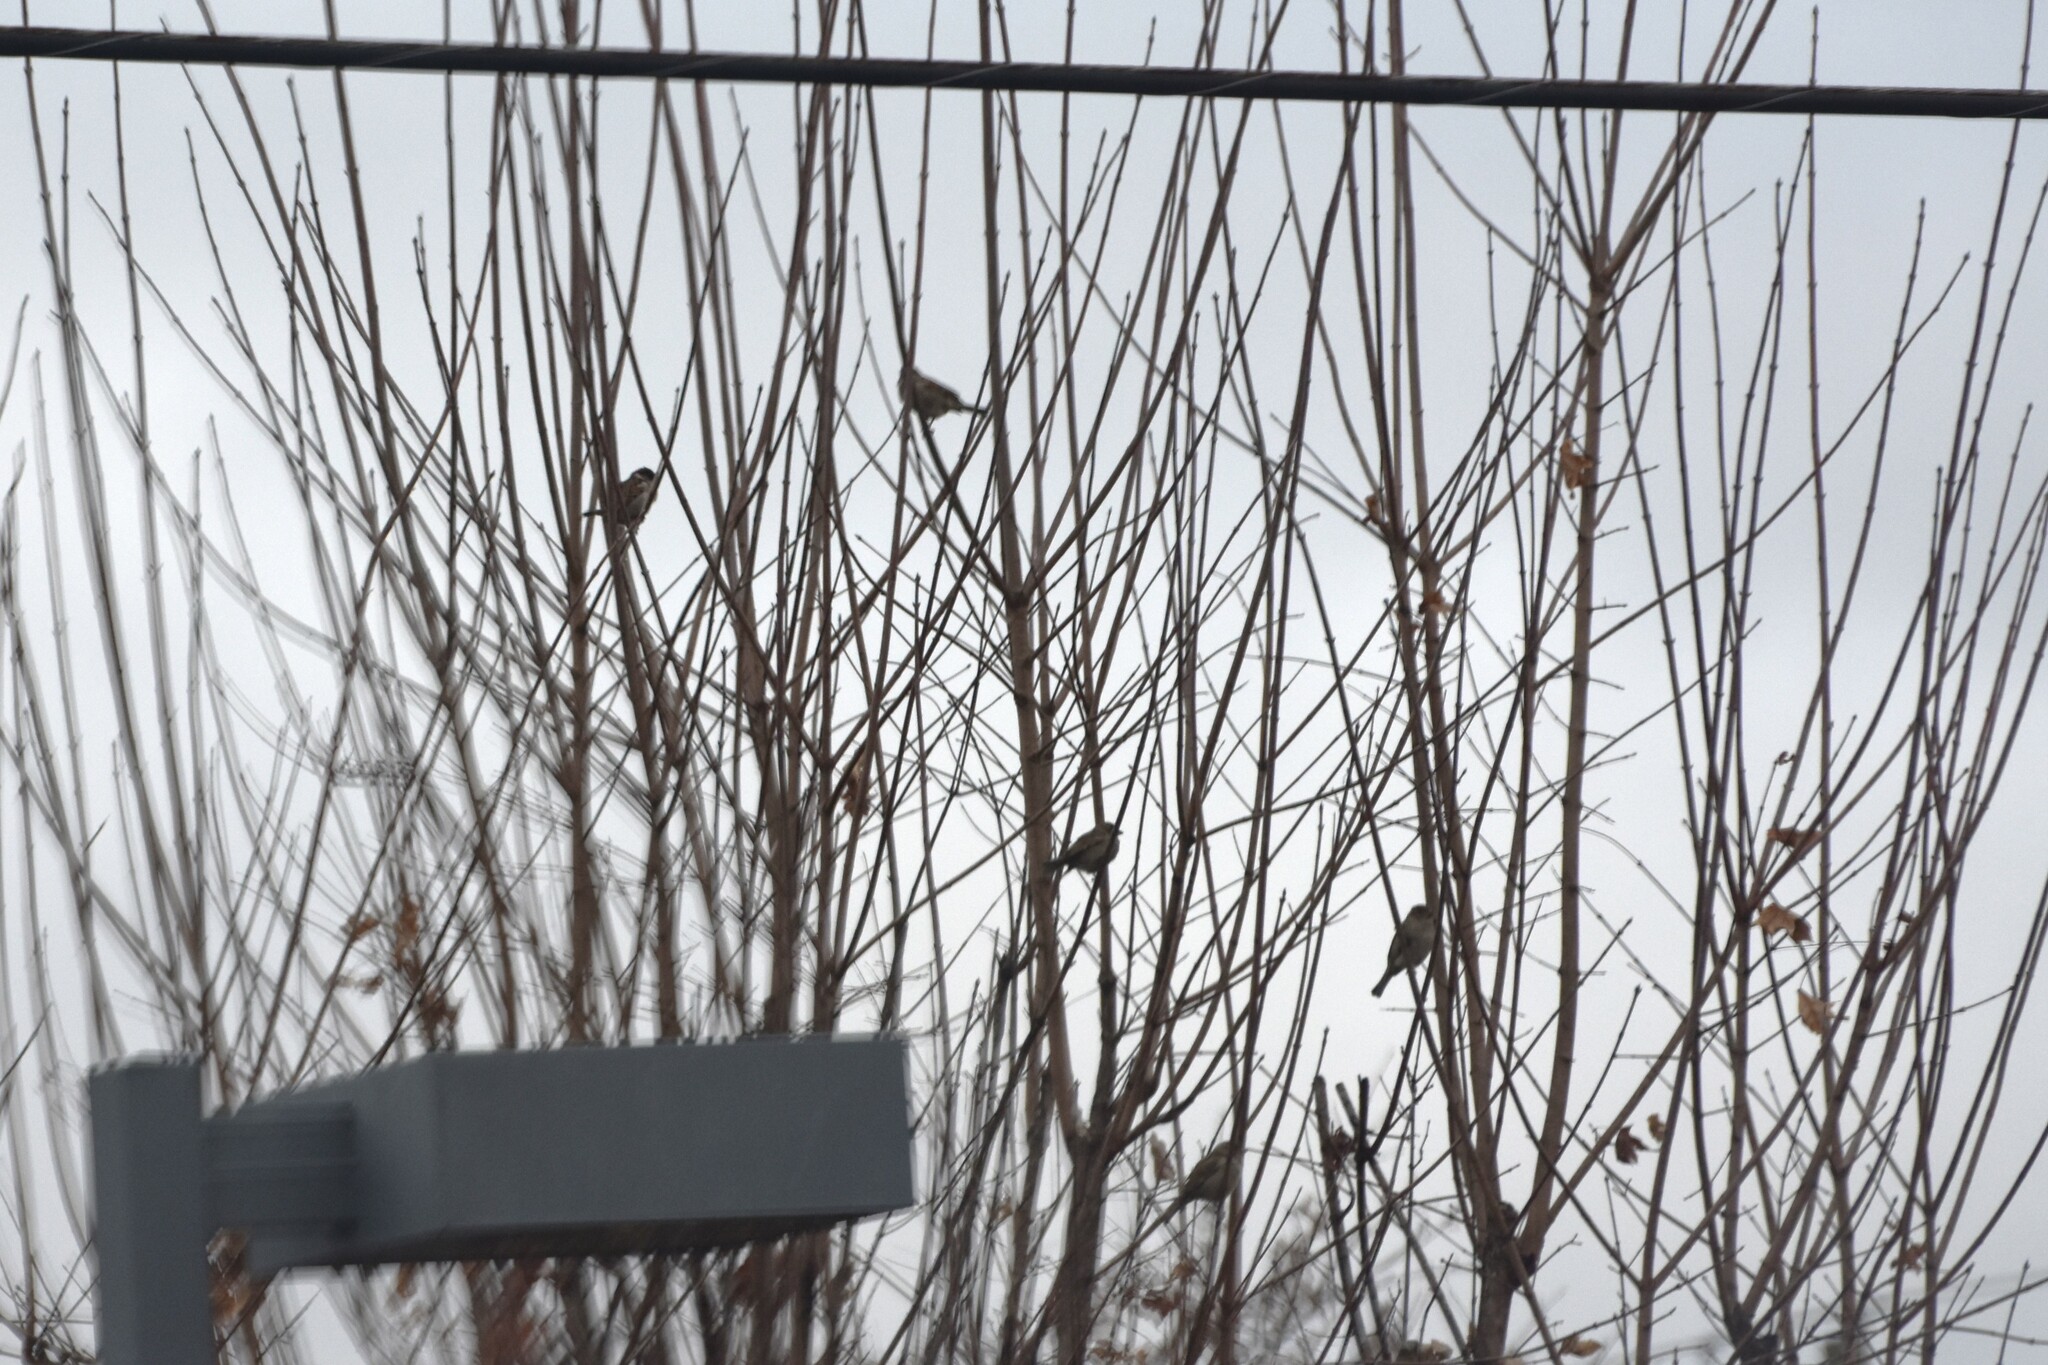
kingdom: Animalia
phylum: Chordata
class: Aves
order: Passeriformes
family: Passeridae
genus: Passer
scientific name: Passer domesticus
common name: House sparrow
